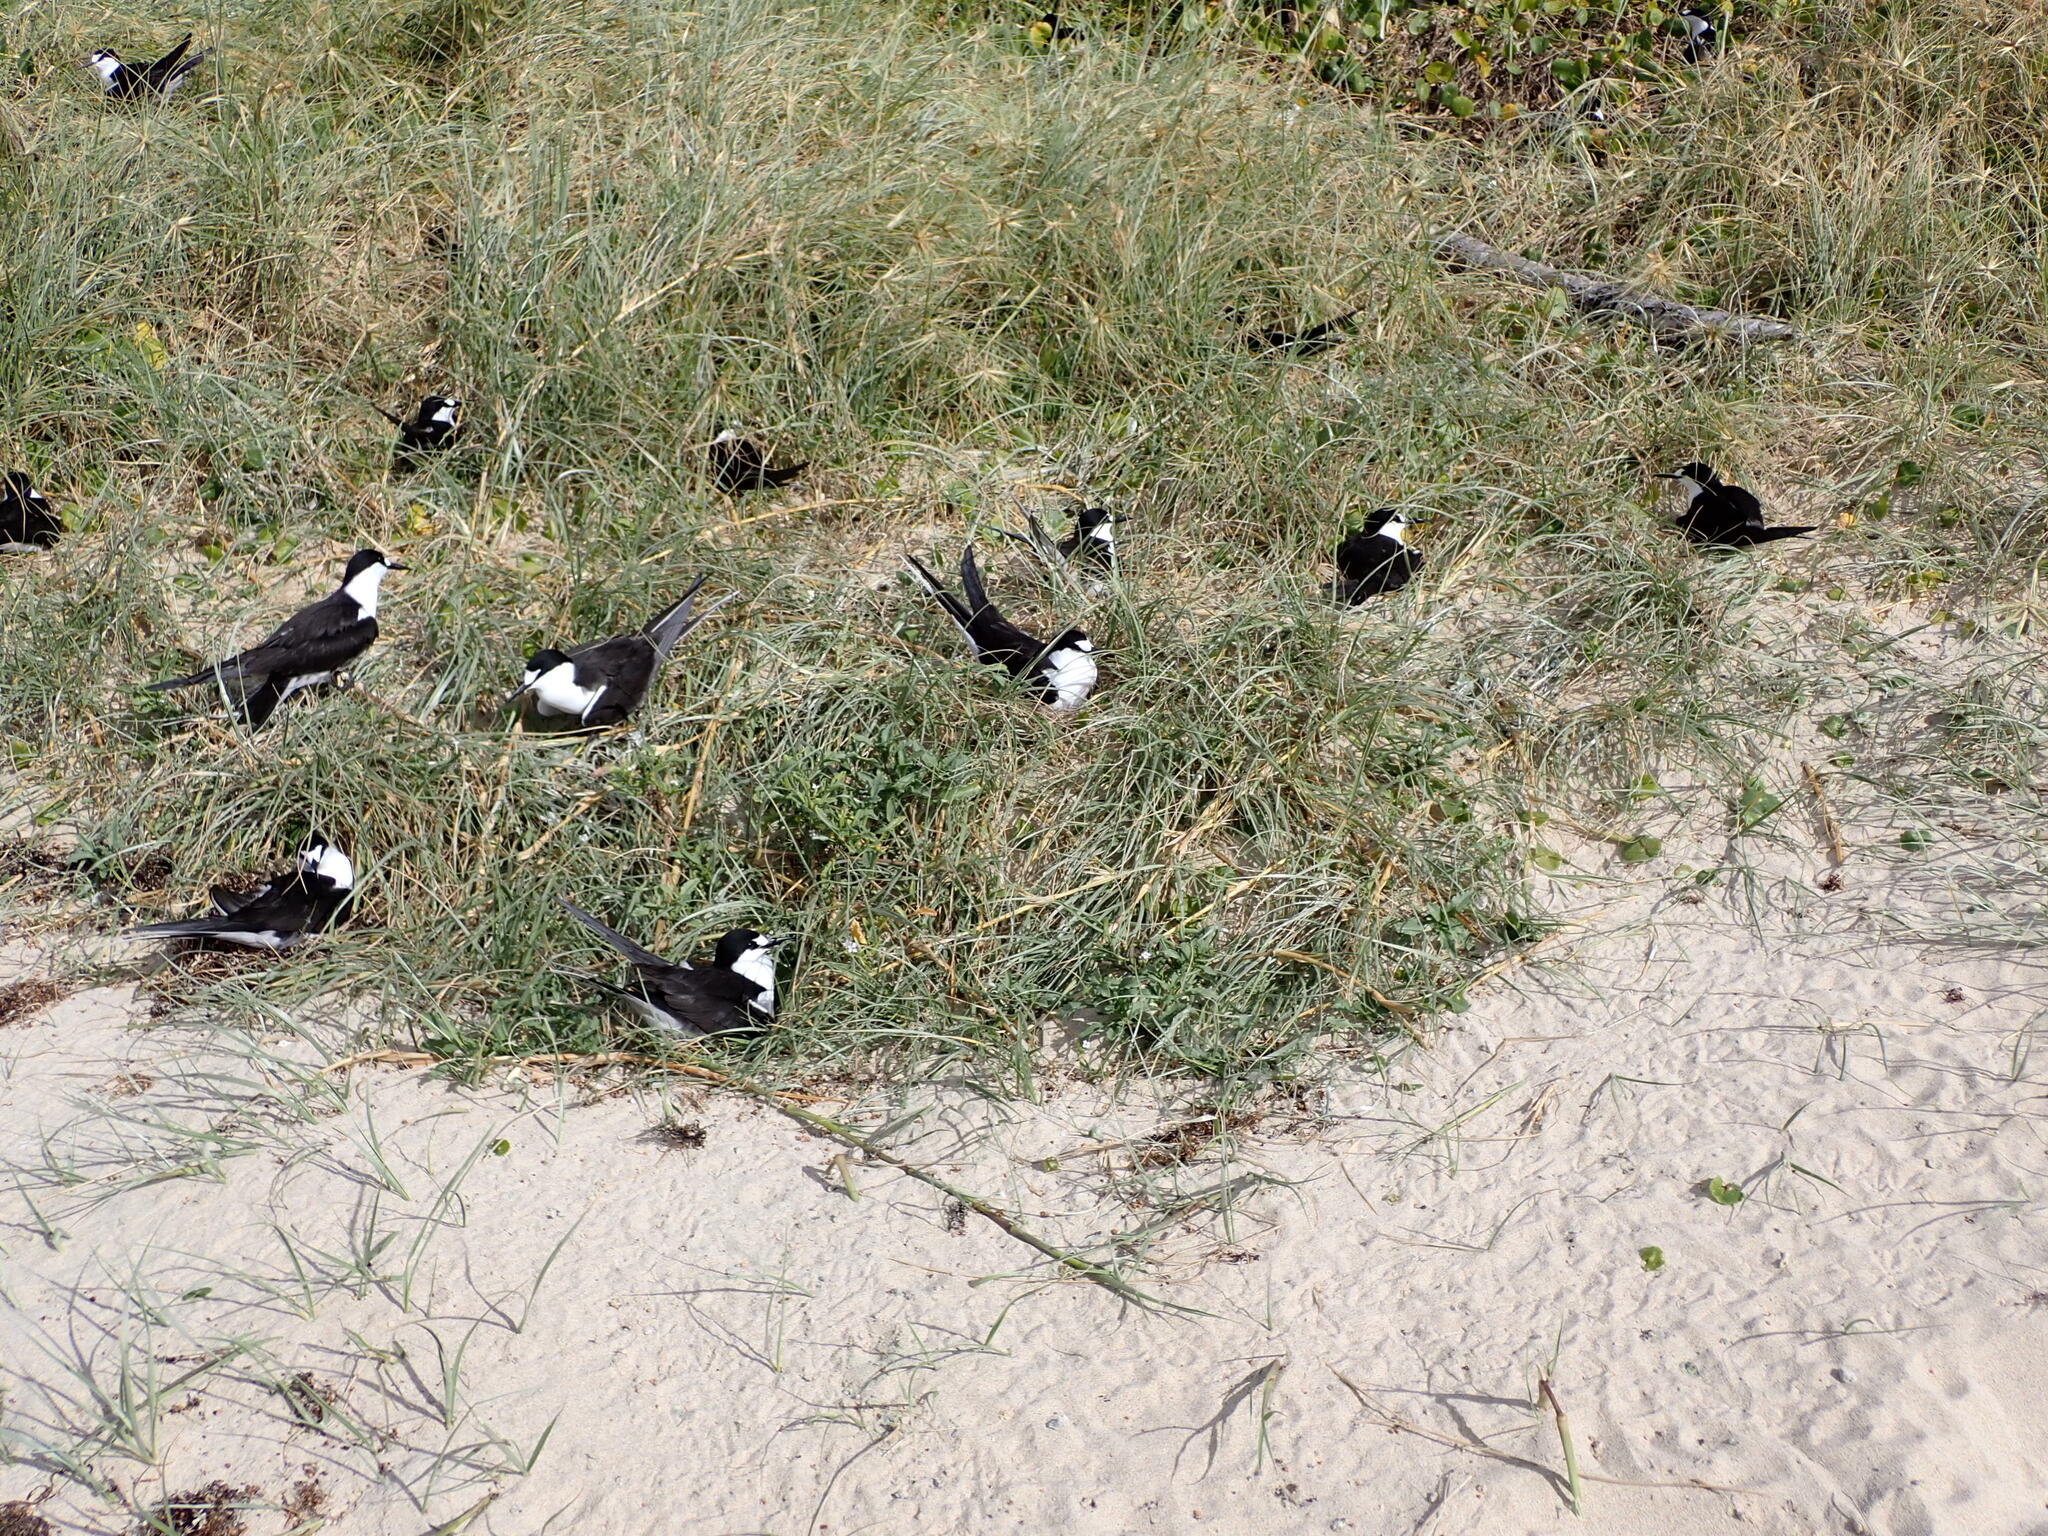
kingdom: Animalia
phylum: Chordata
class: Aves
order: Charadriiformes
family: Laridae
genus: Onychoprion
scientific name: Onychoprion fuscatus
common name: Sooty tern
